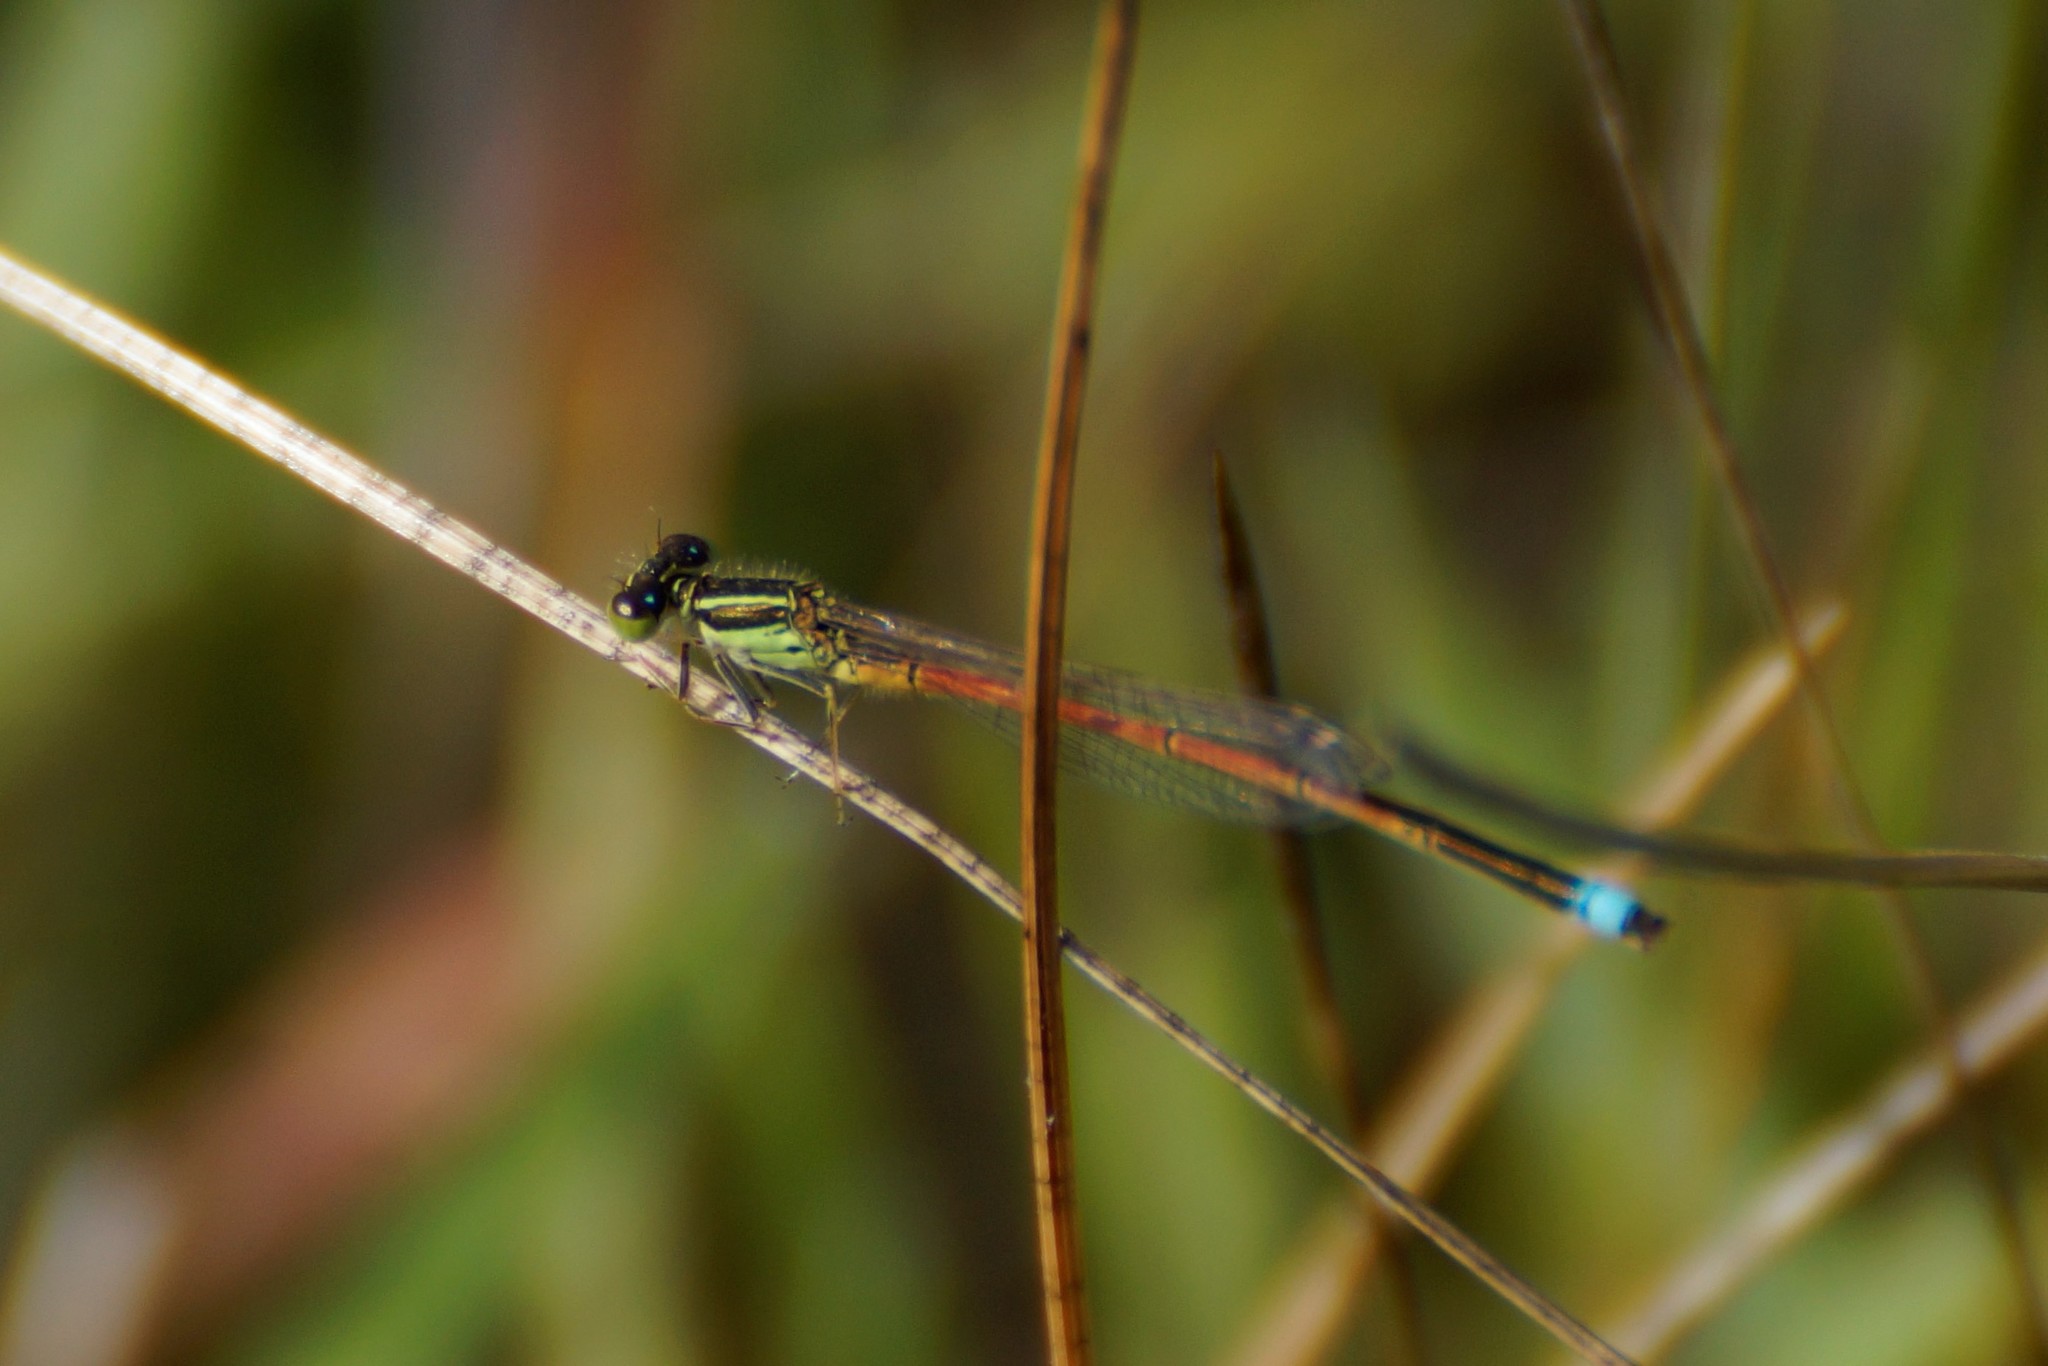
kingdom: Animalia
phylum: Arthropoda
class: Insecta
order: Odonata
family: Coenagrionidae
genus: Ischnura
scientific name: Ischnura aurora
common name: Gossamer damselfly
